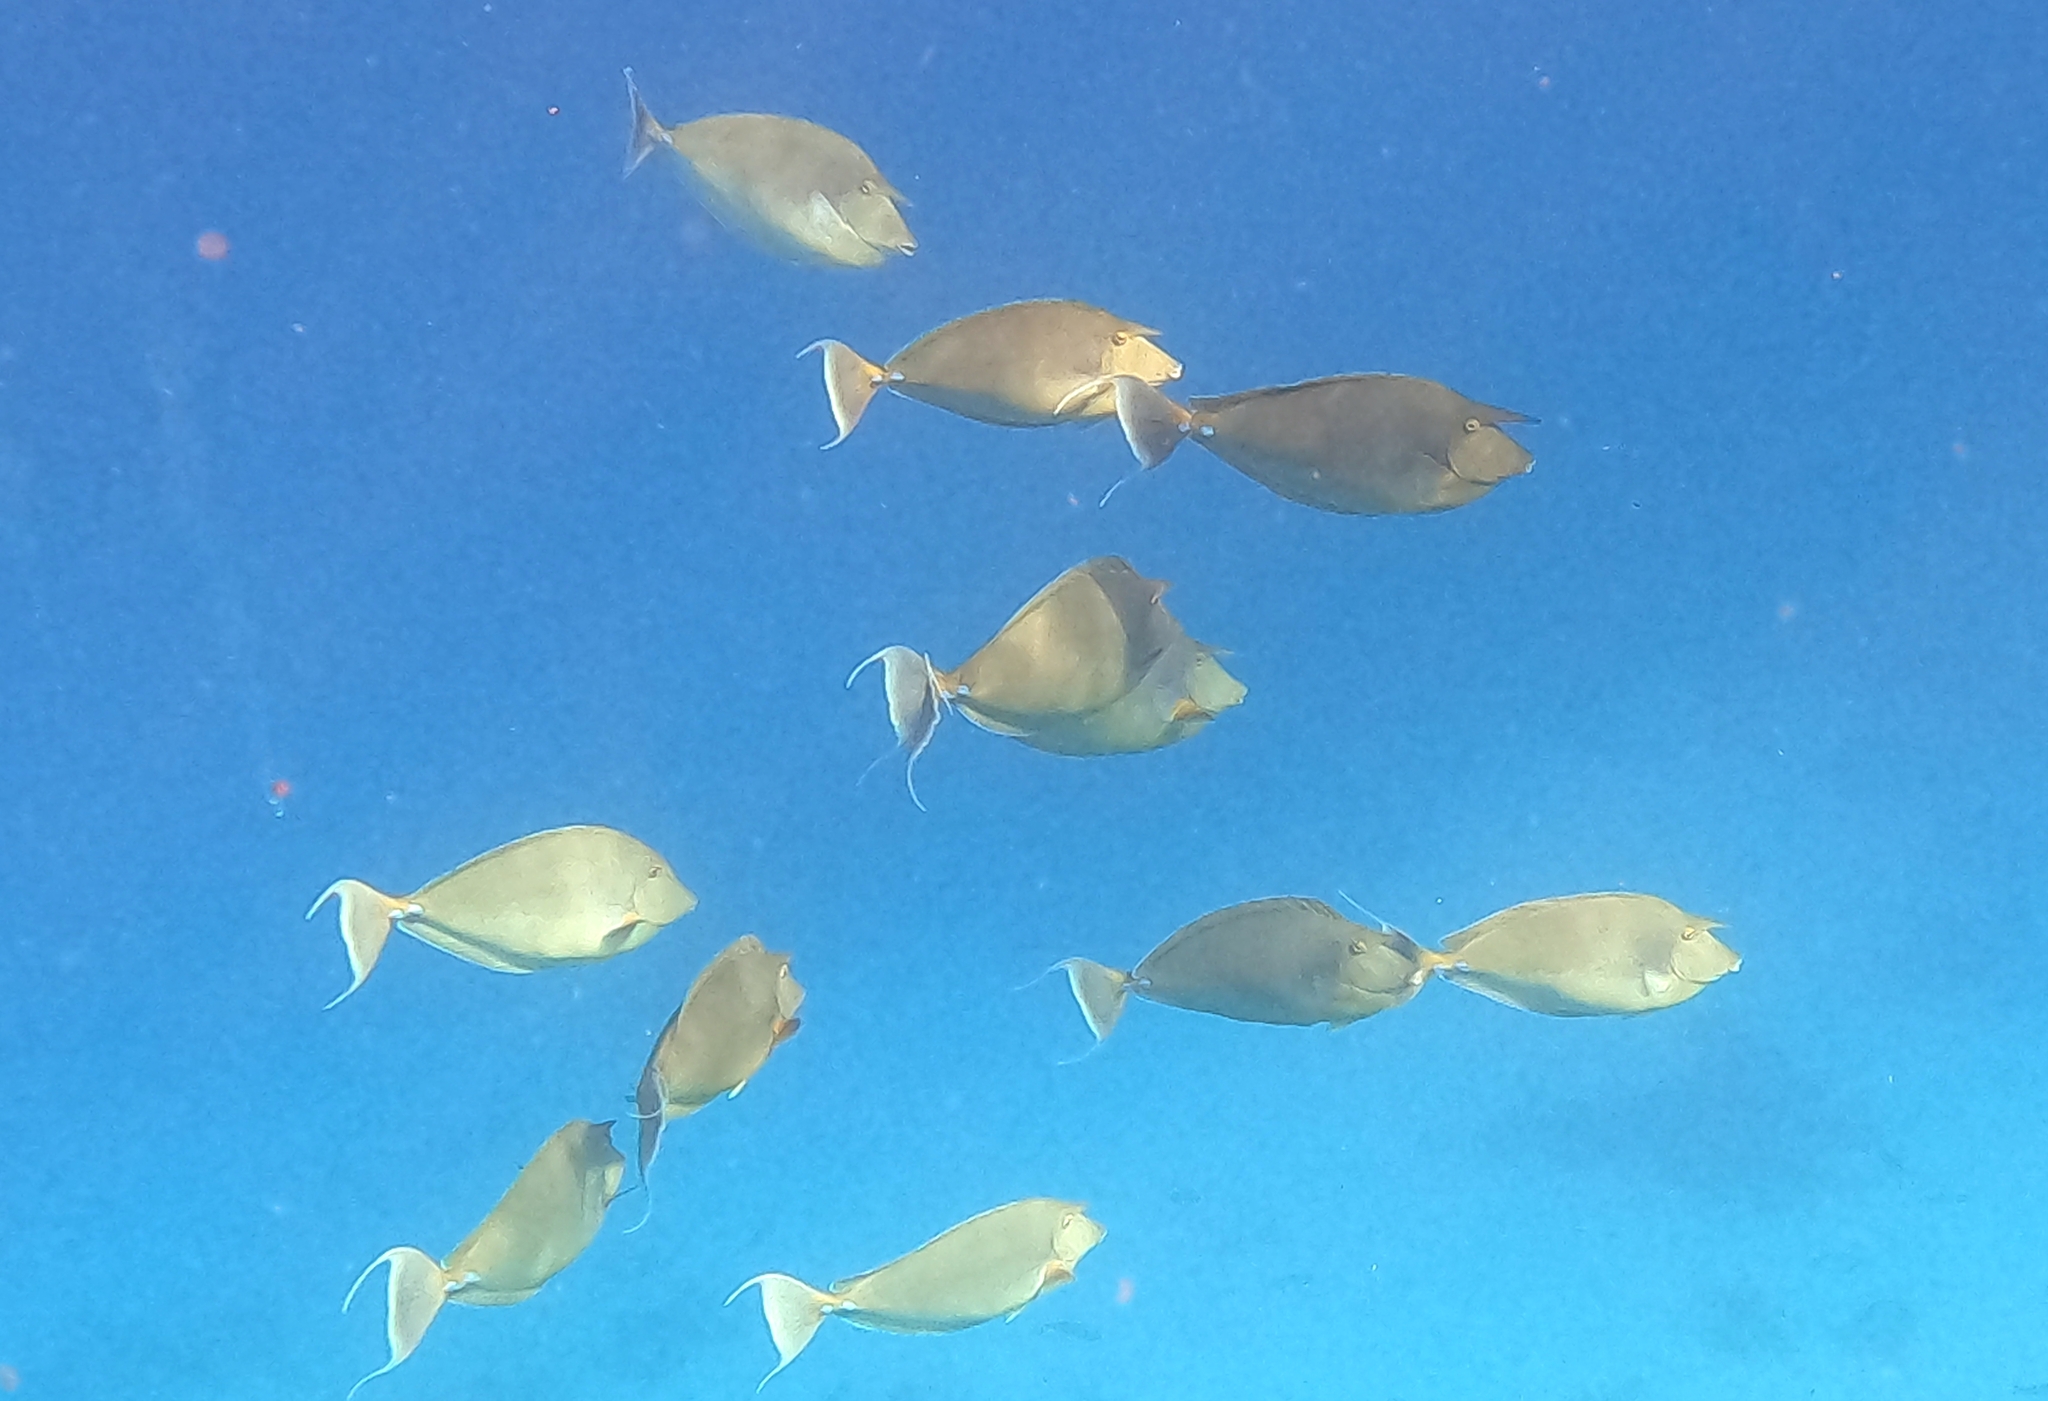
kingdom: Animalia
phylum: Chordata
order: Perciformes
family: Acanthuridae
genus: Naso
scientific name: Naso unicornis
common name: Bluespine unicornfish
